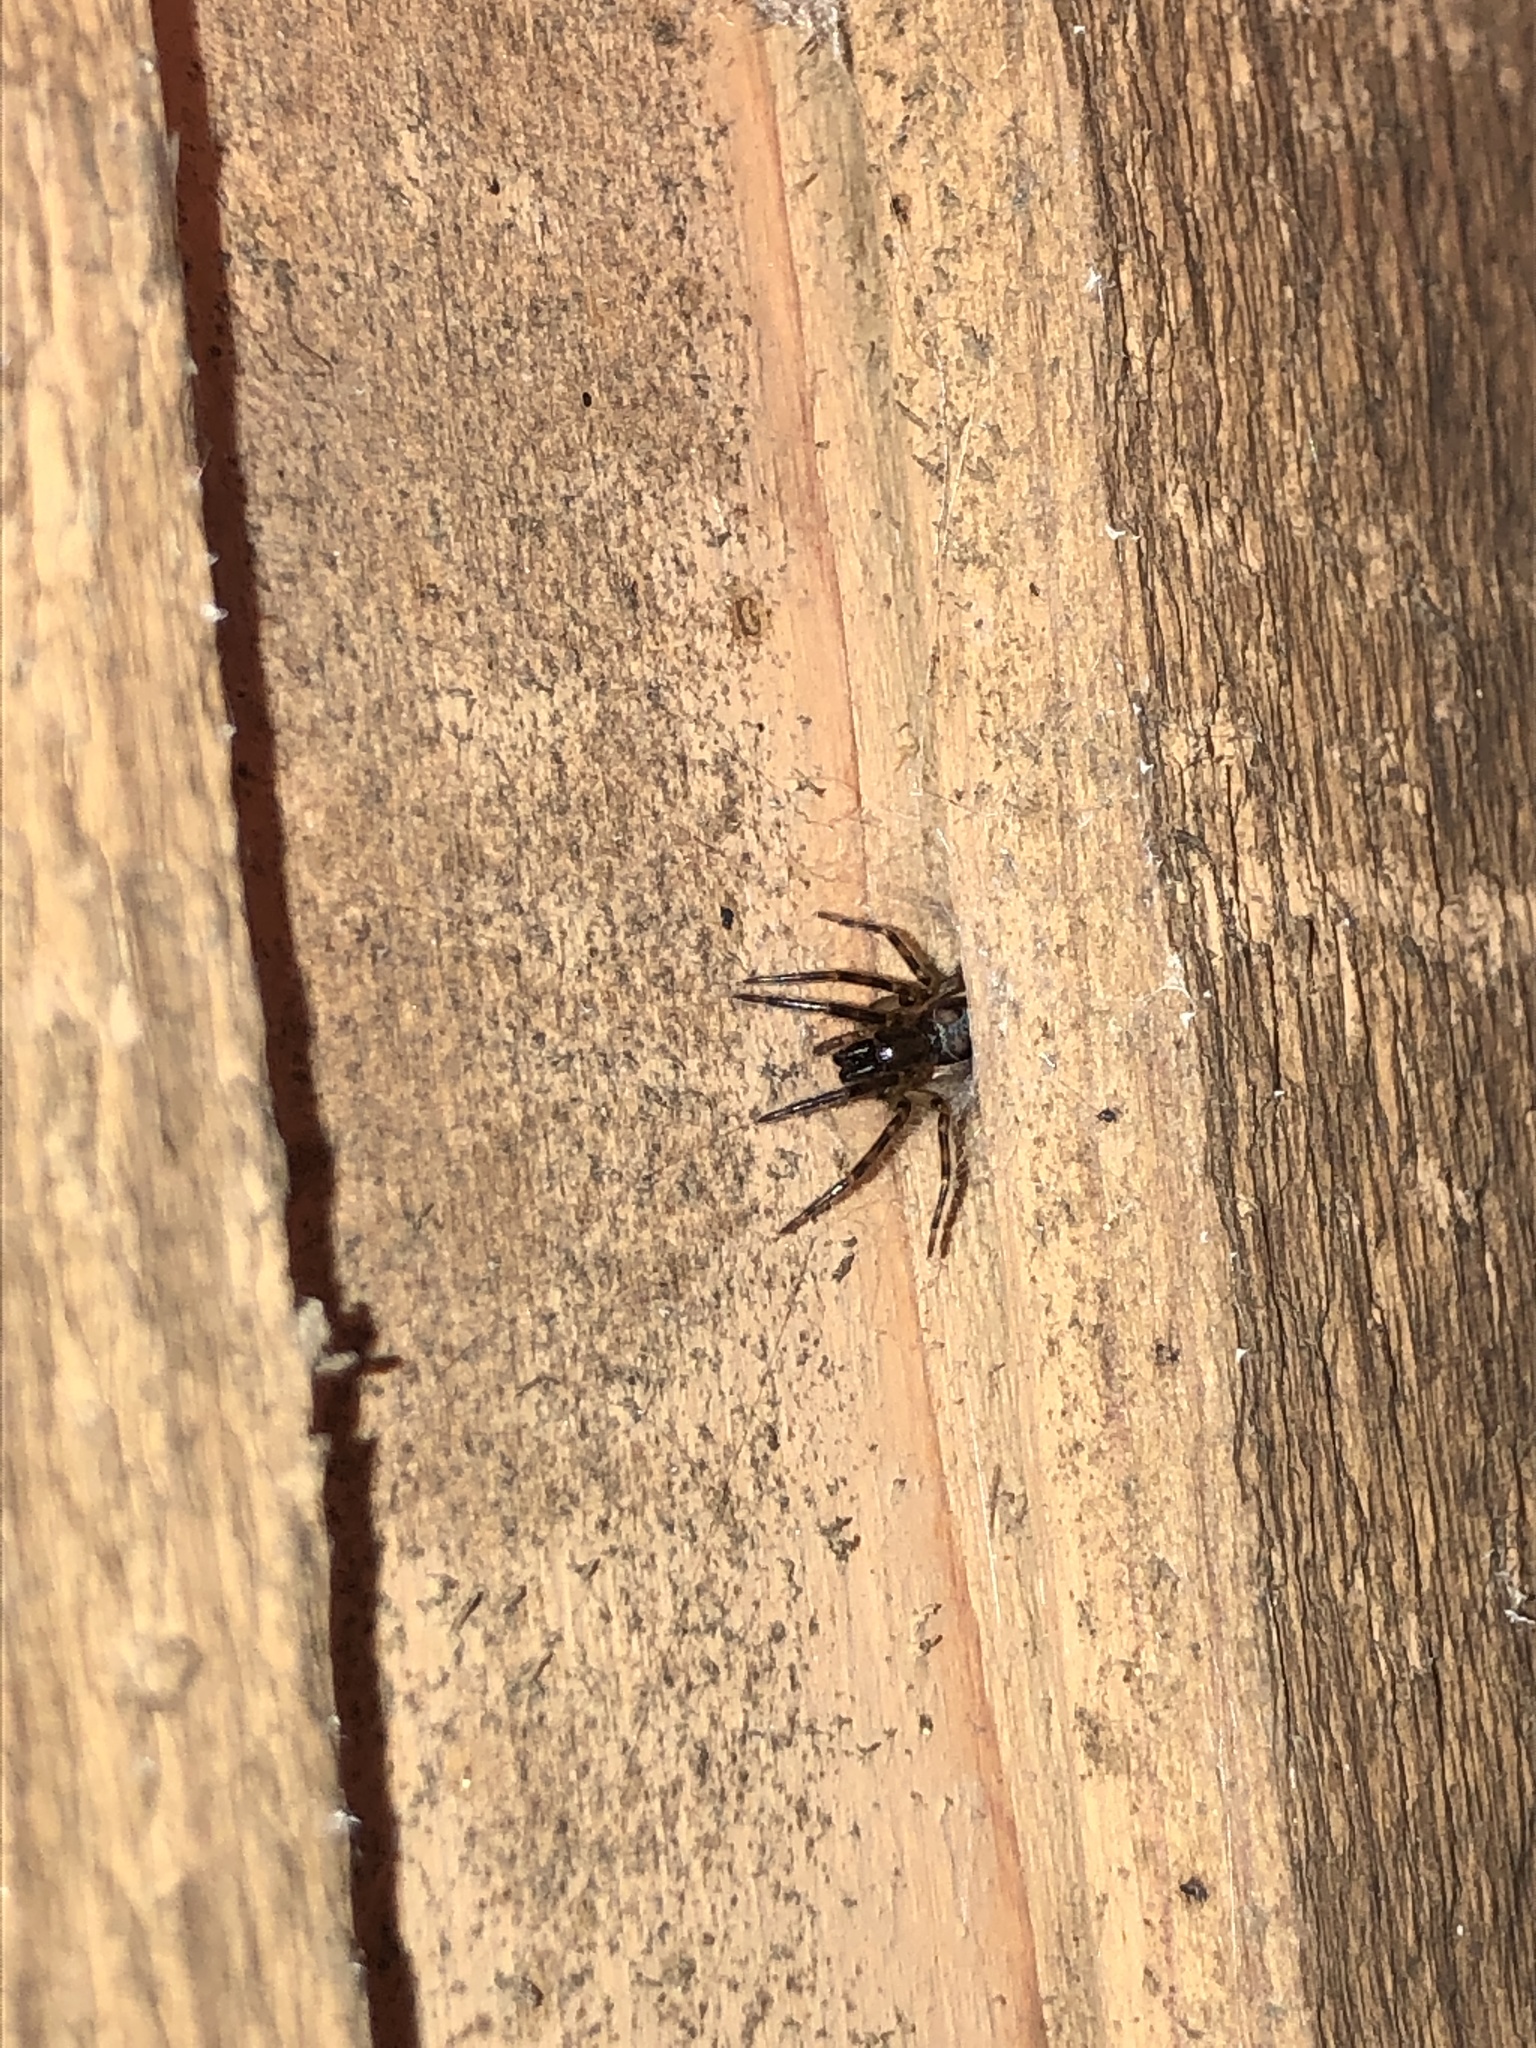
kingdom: Animalia
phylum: Arthropoda
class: Arachnida
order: Araneae
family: Segestriidae
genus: Segestria
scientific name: Segestria pacifica
